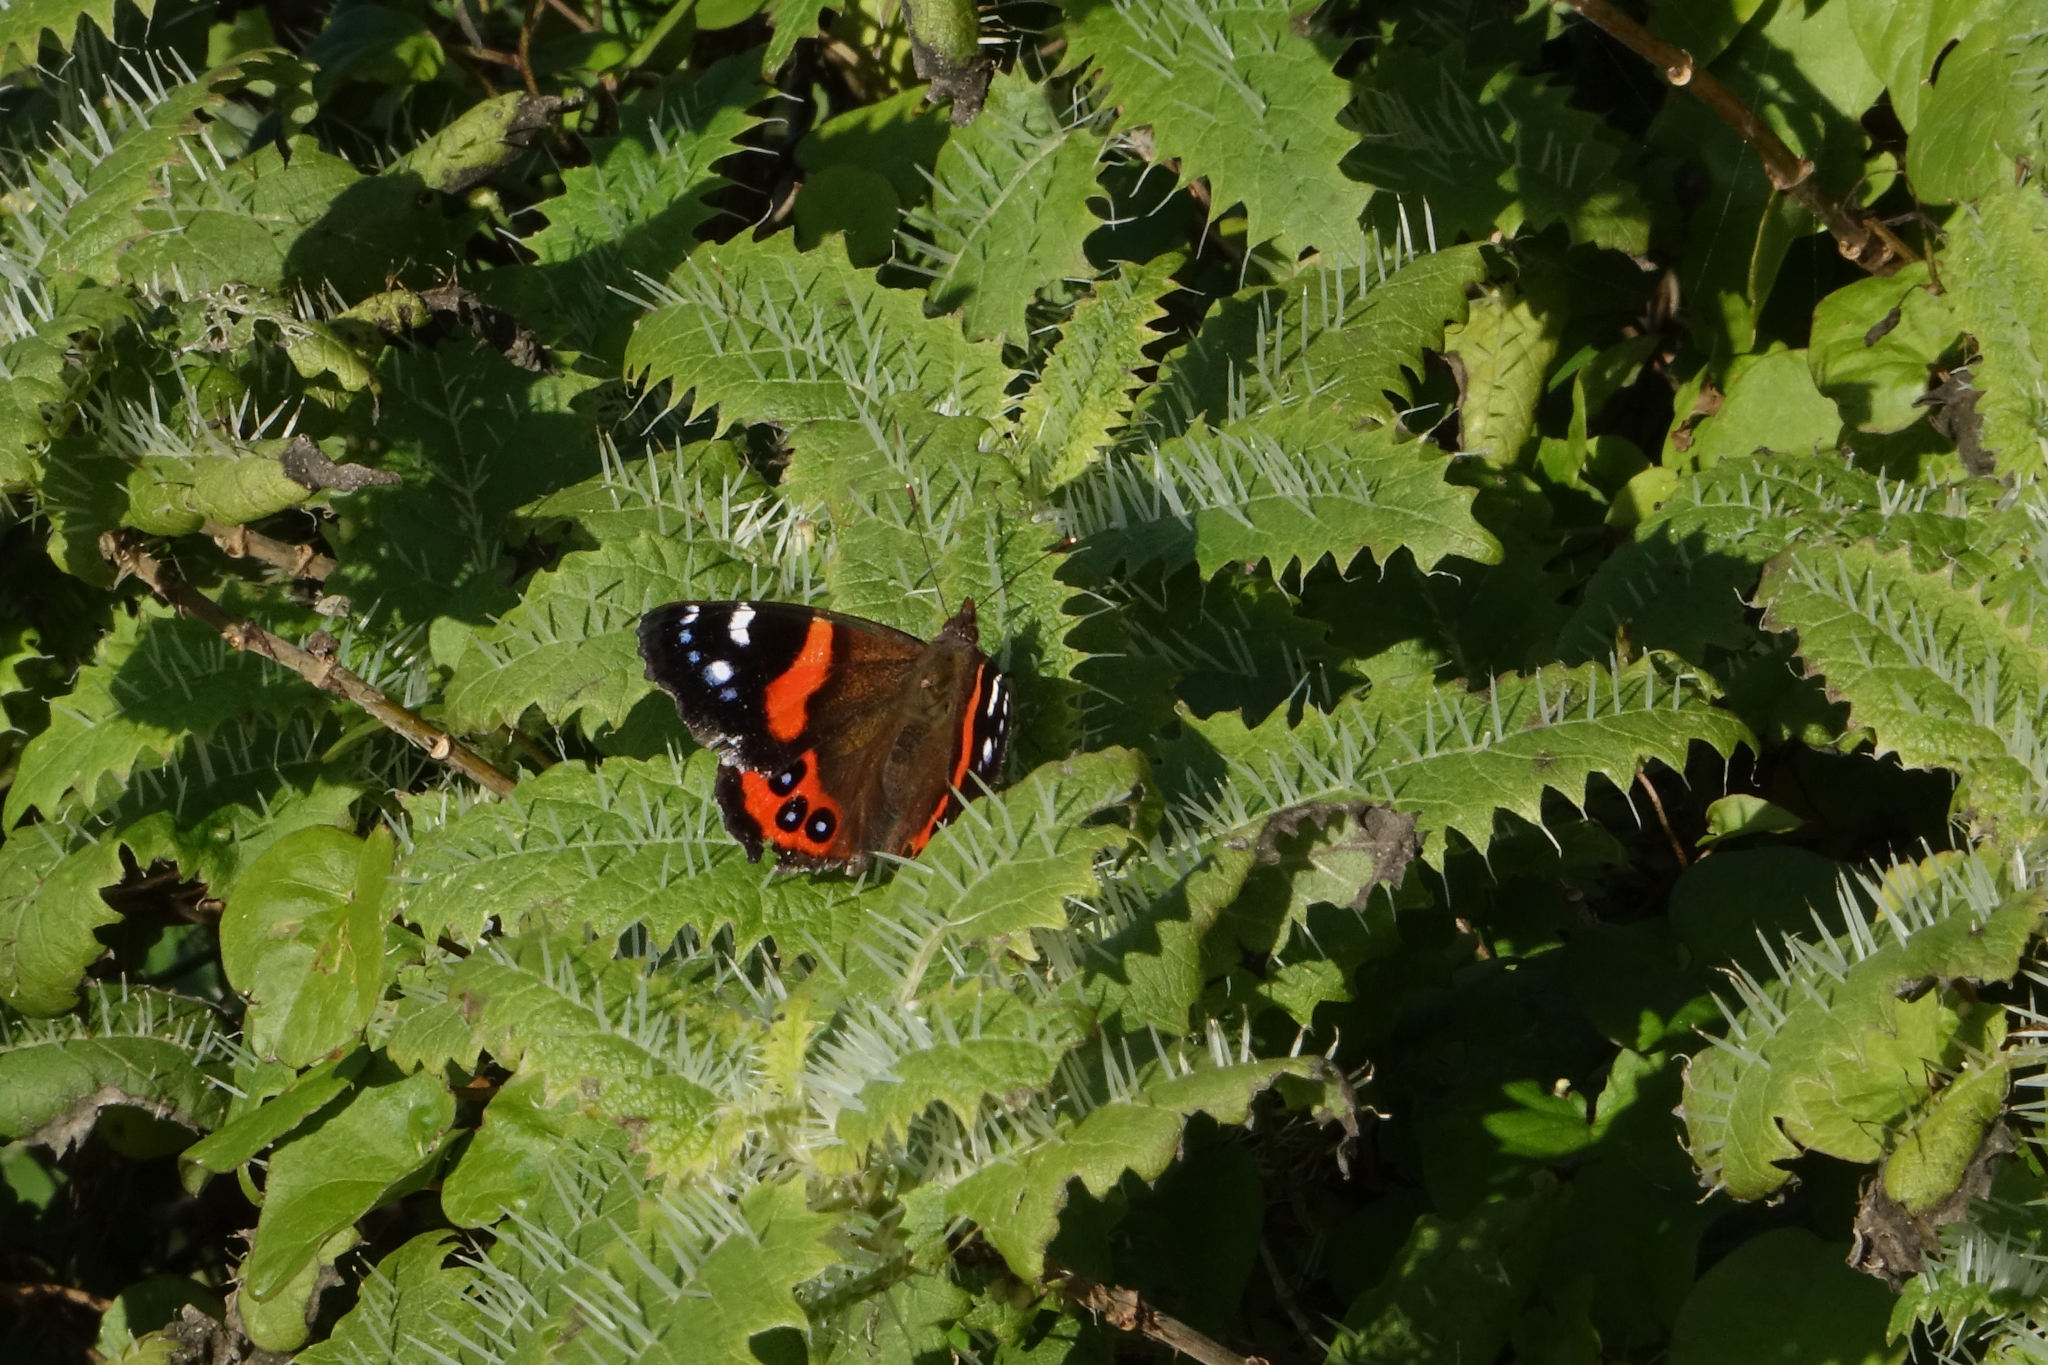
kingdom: Animalia
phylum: Arthropoda
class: Insecta
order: Lepidoptera
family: Nymphalidae
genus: Vanessa
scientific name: Vanessa gonerilla
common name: New zealand red admiral
